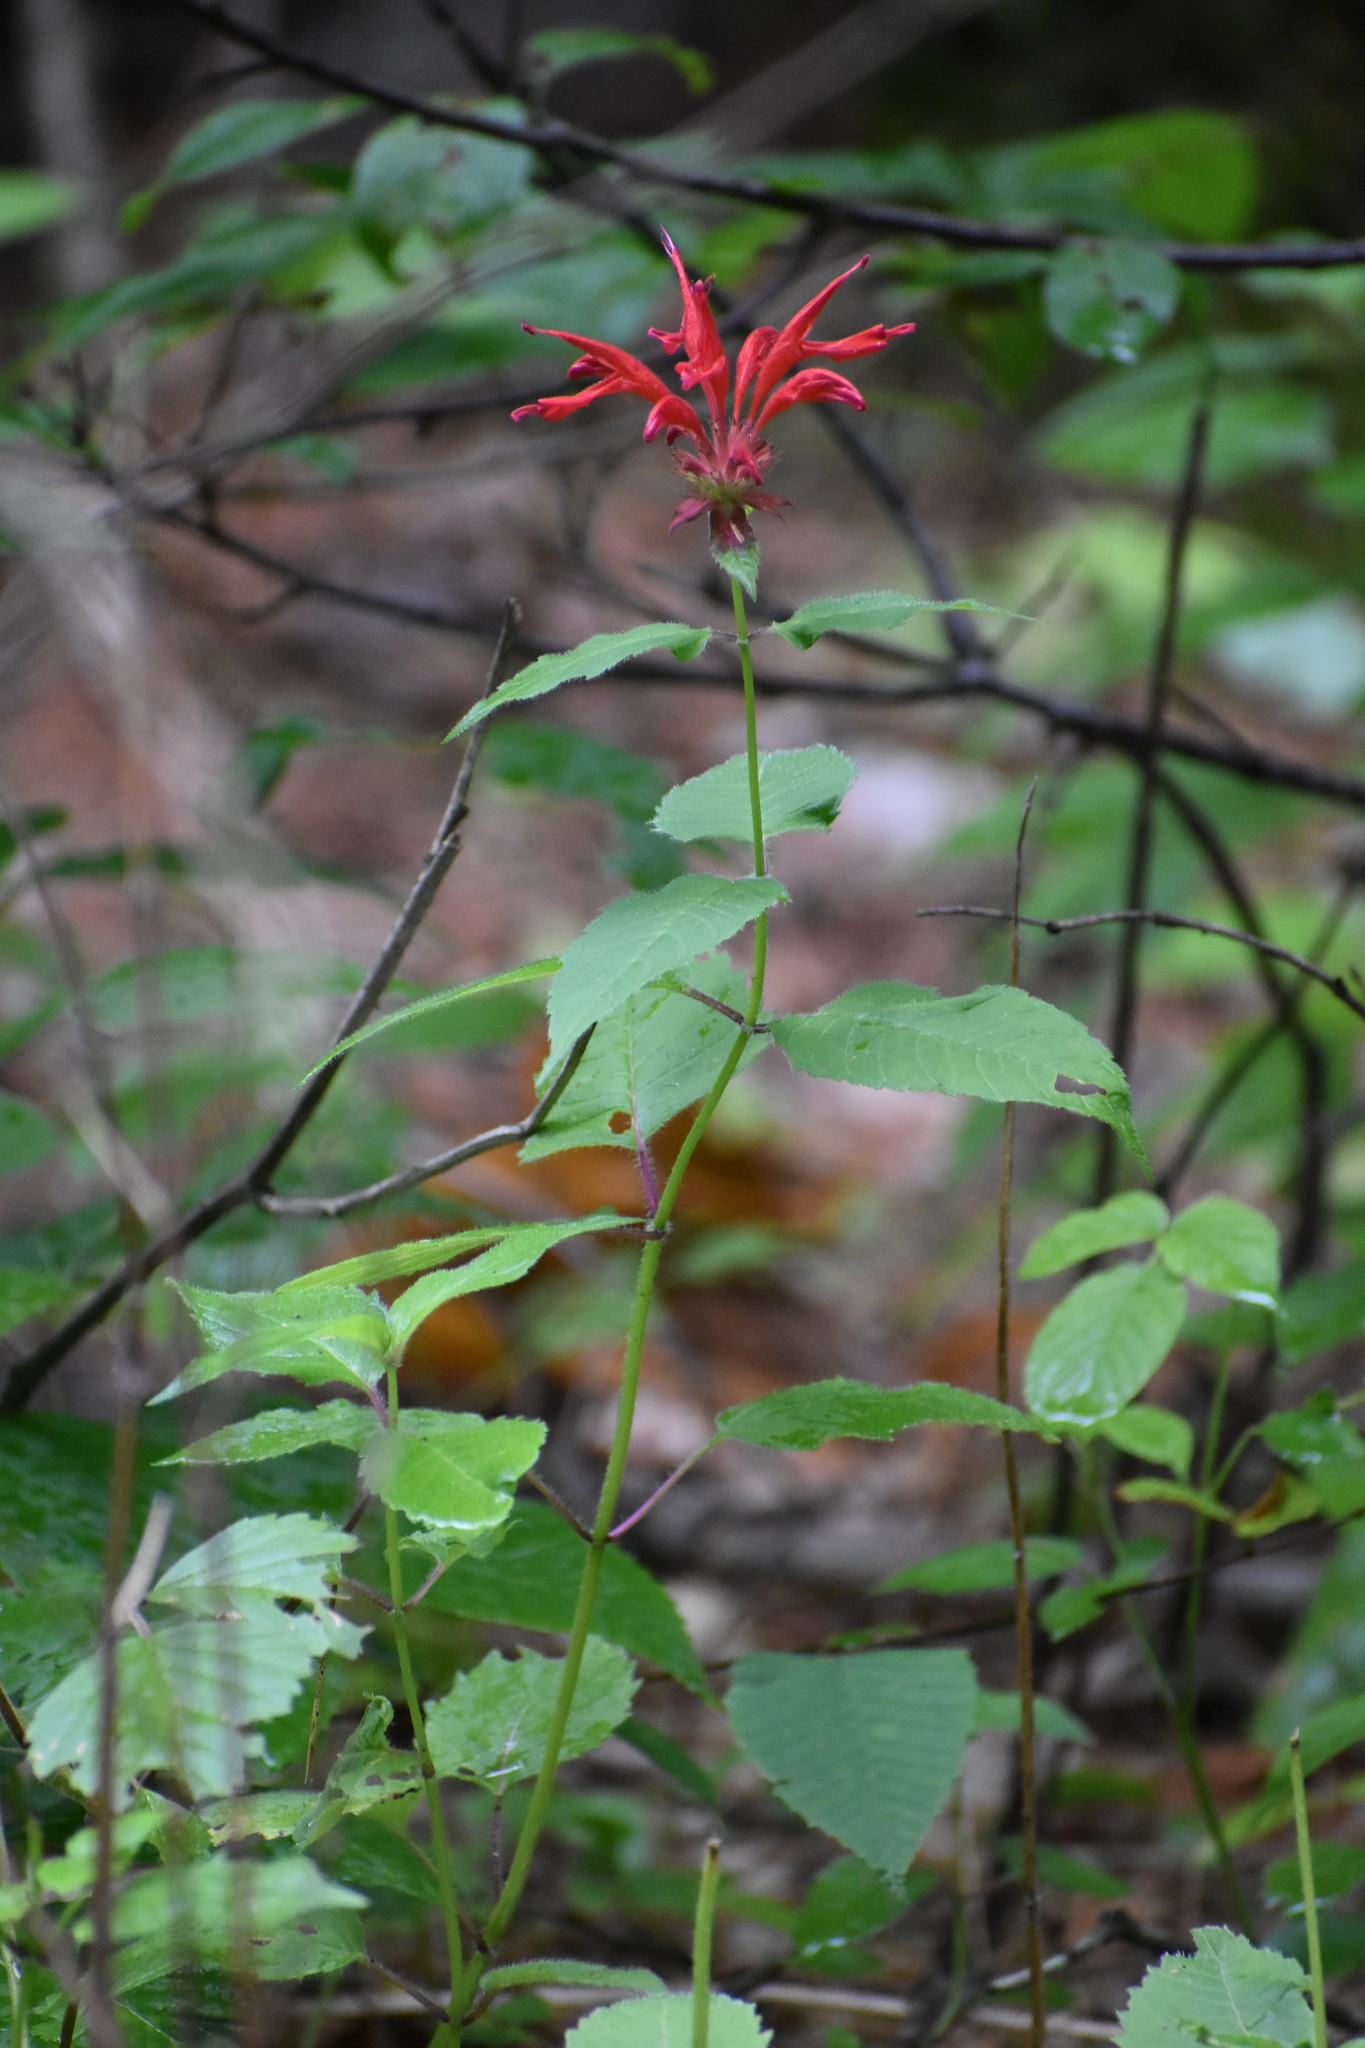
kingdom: Plantae
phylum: Tracheophyta
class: Magnoliopsida
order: Lamiales
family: Lamiaceae
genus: Monarda
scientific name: Monarda didyma
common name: Beebalm
